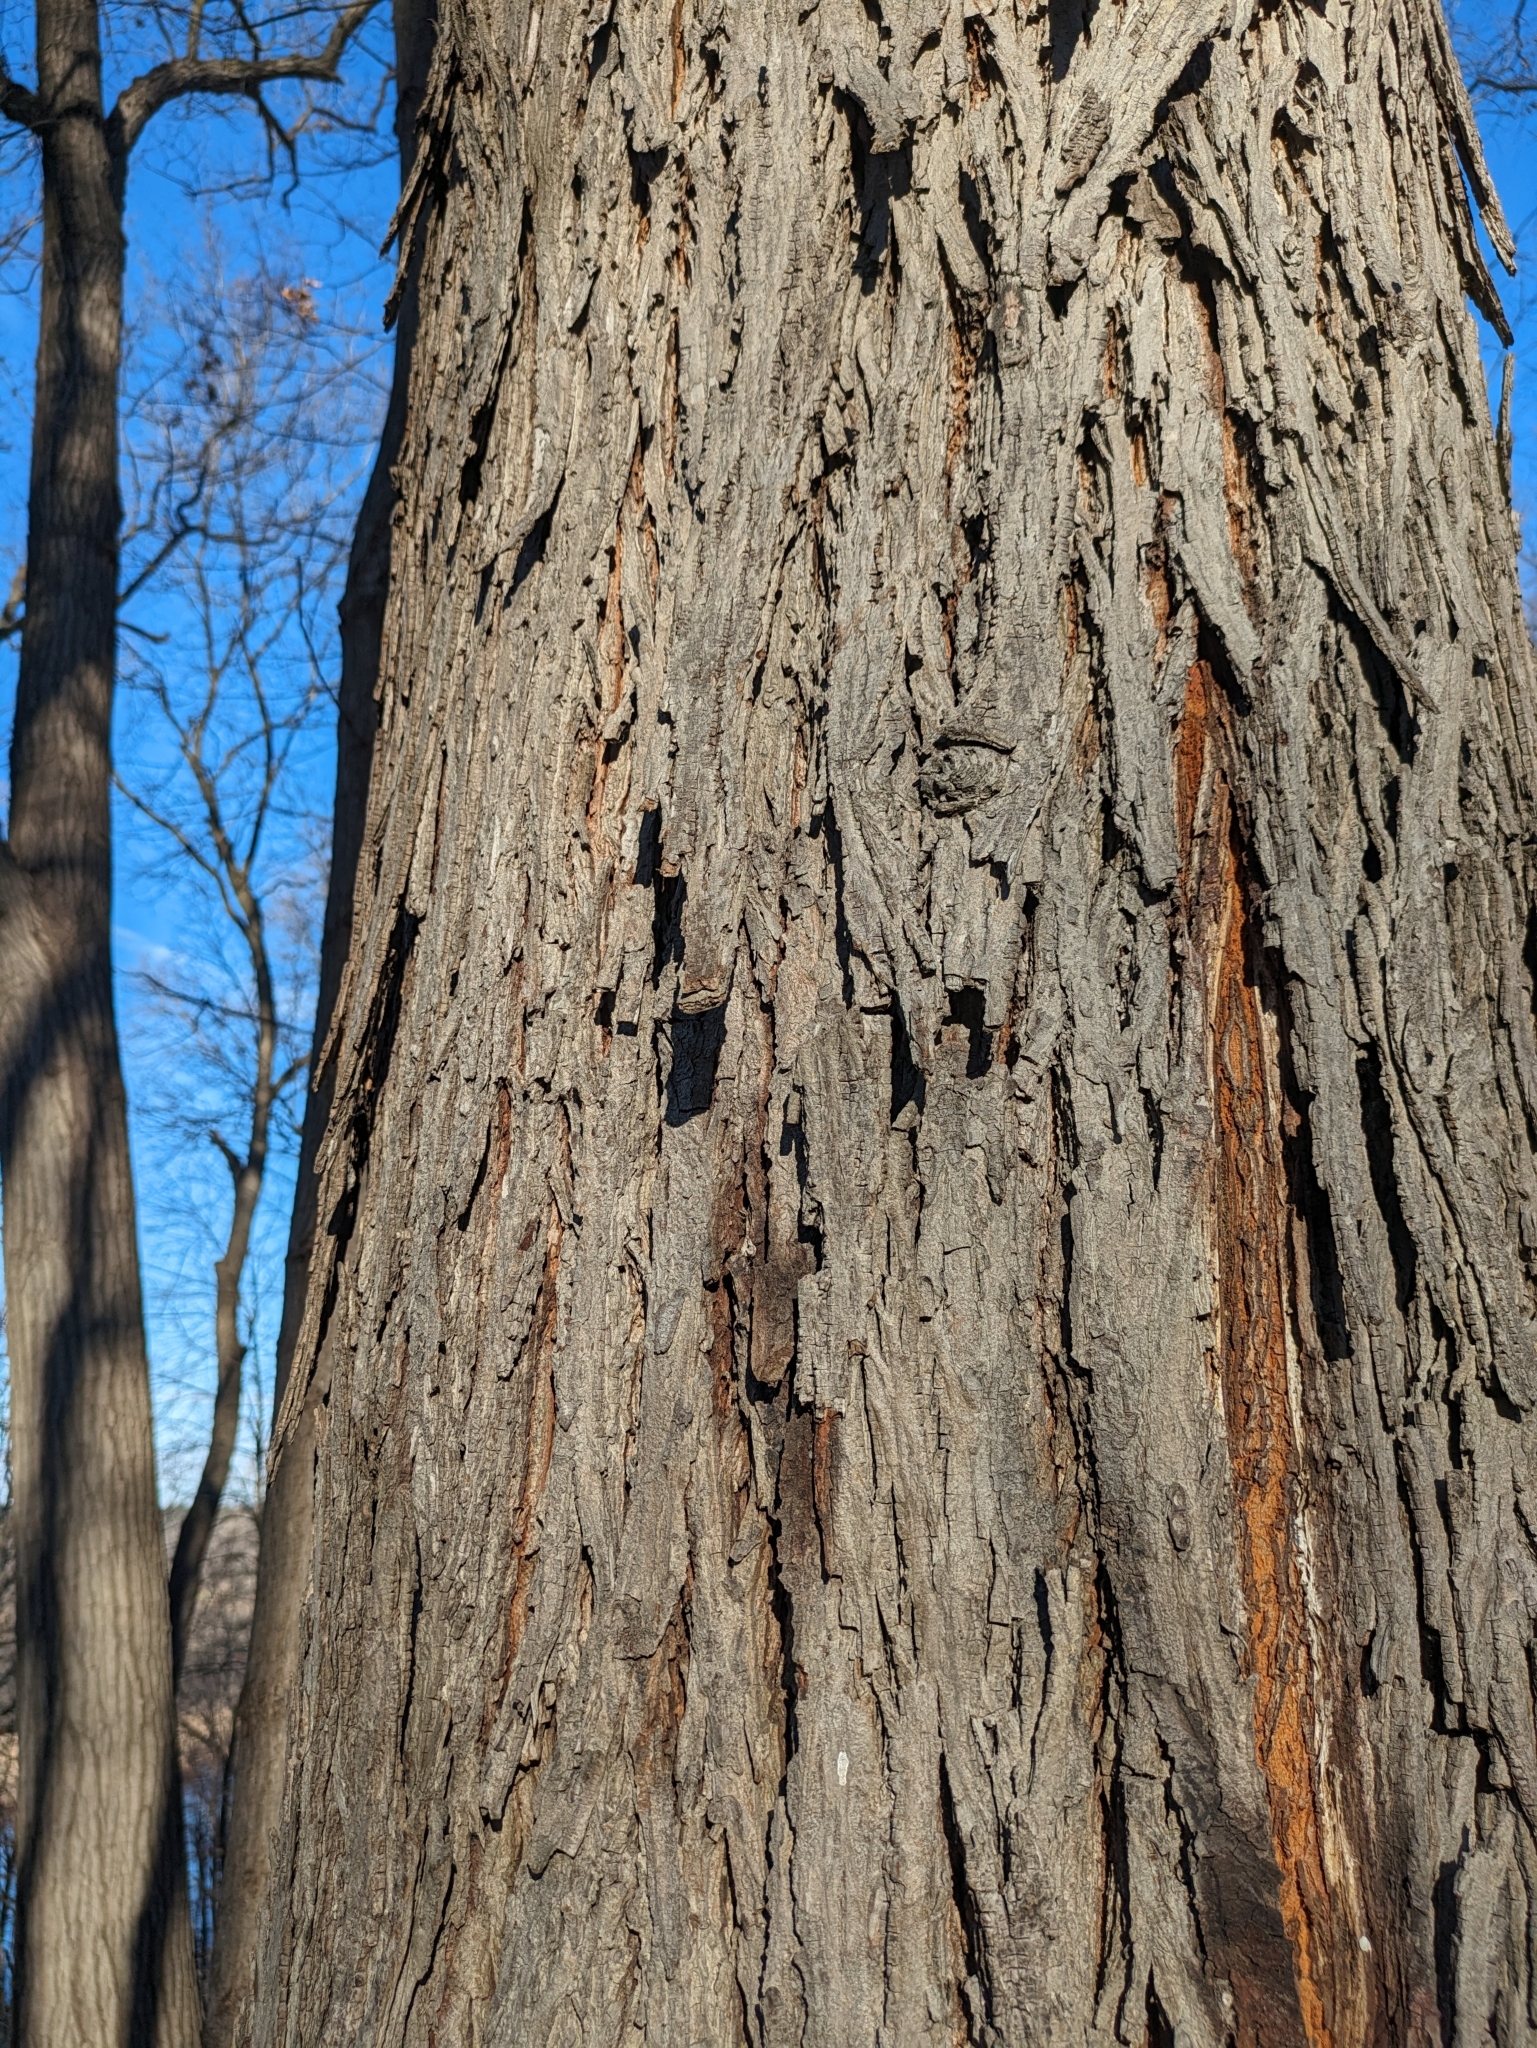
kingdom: Plantae
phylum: Tracheophyta
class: Magnoliopsida
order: Fagales
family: Juglandaceae
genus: Carya
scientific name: Carya glabra
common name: Pignut hickory
